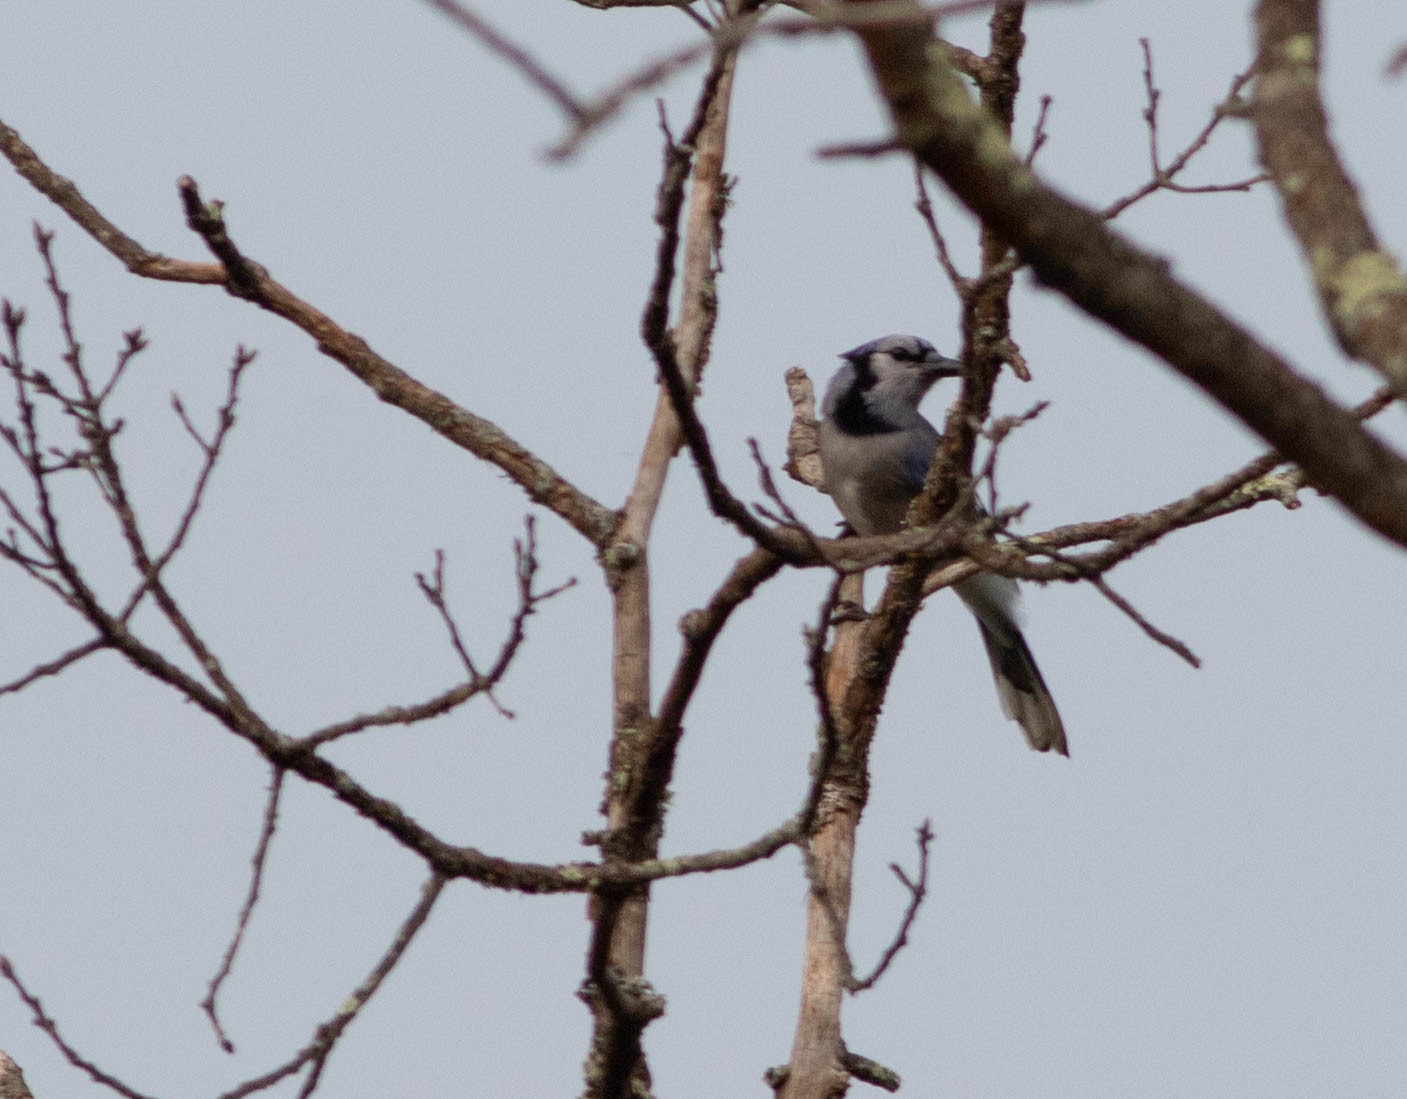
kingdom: Animalia
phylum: Chordata
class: Aves
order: Passeriformes
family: Corvidae
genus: Cyanocitta
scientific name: Cyanocitta cristata
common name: Blue jay
